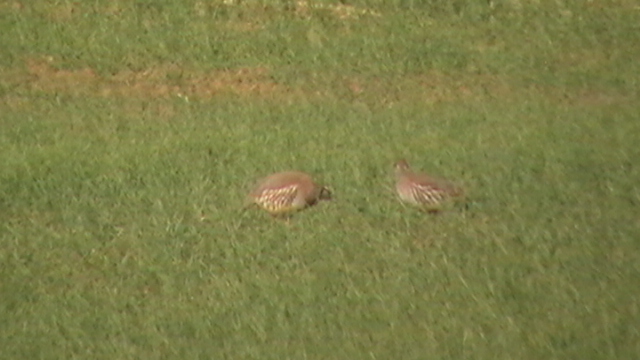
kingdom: Animalia
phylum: Chordata
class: Aves
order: Galliformes
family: Phasianidae
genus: Alectoris
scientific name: Alectoris rufa
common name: Red-legged partridge
